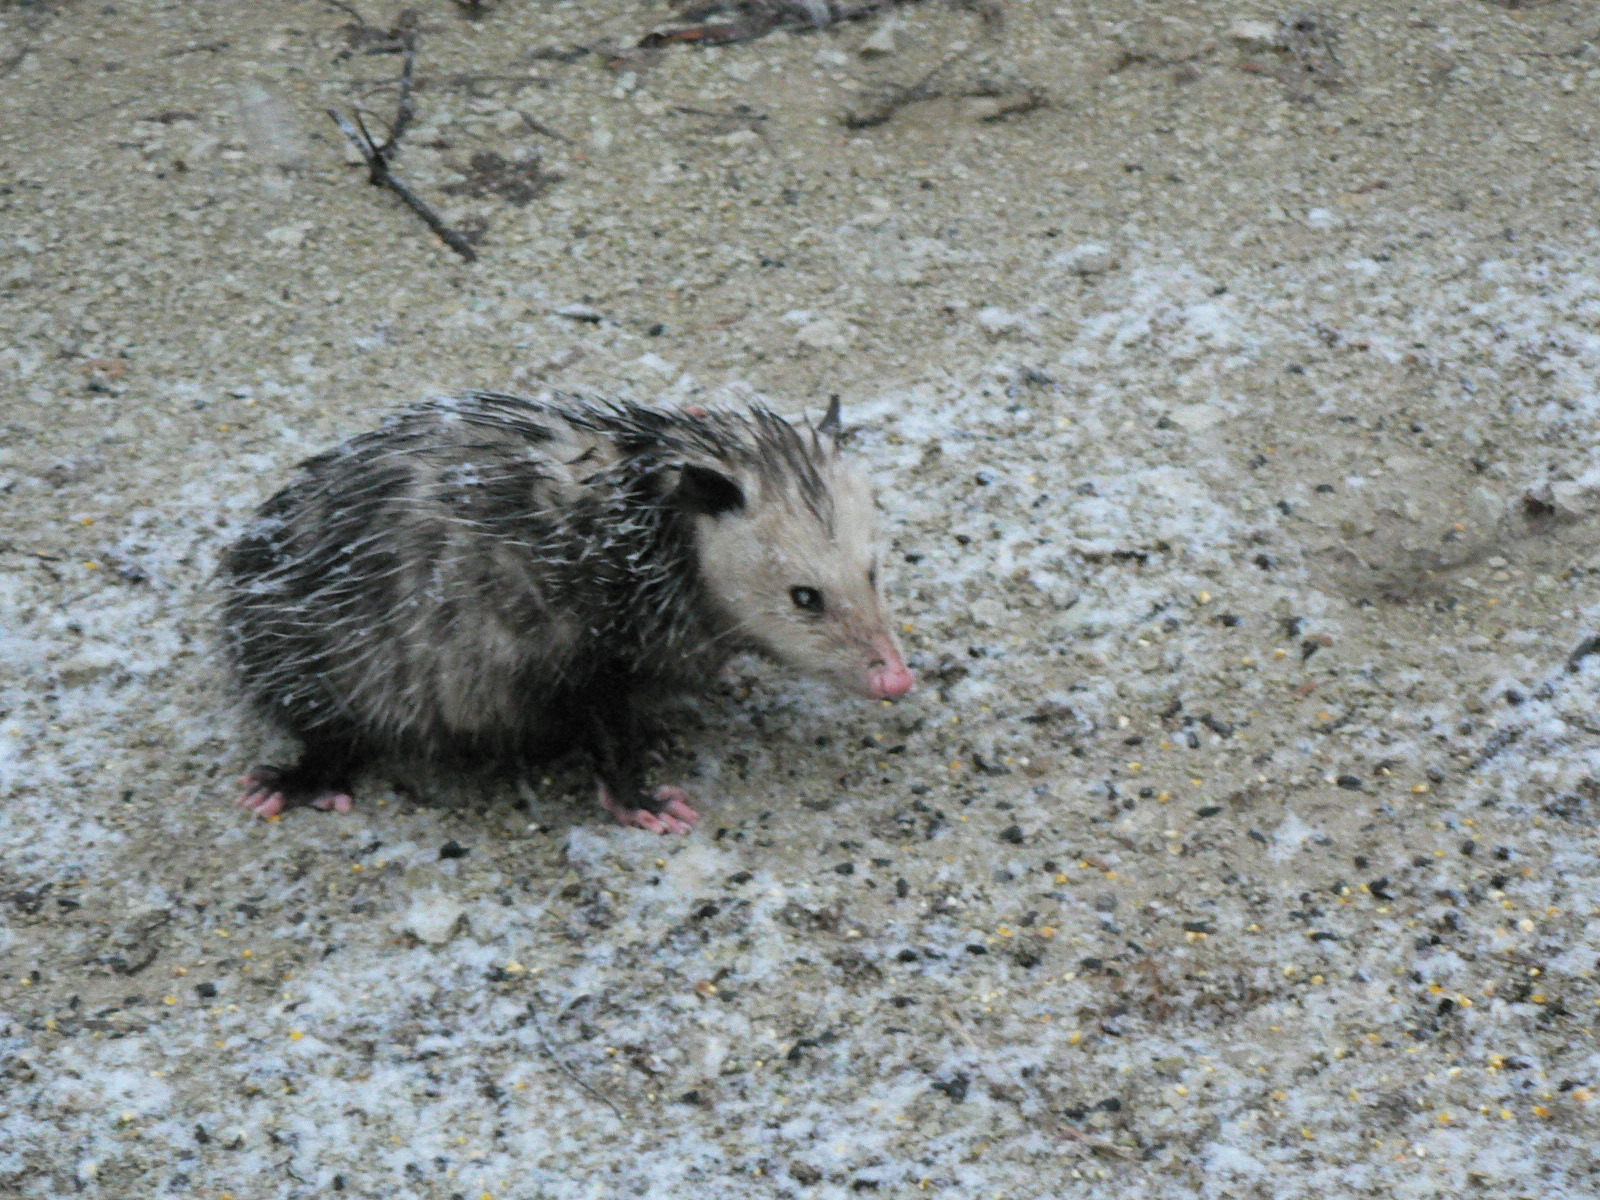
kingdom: Animalia
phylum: Chordata
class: Mammalia
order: Didelphimorphia
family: Didelphidae
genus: Didelphis
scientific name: Didelphis virginiana
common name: Virginia opossum
